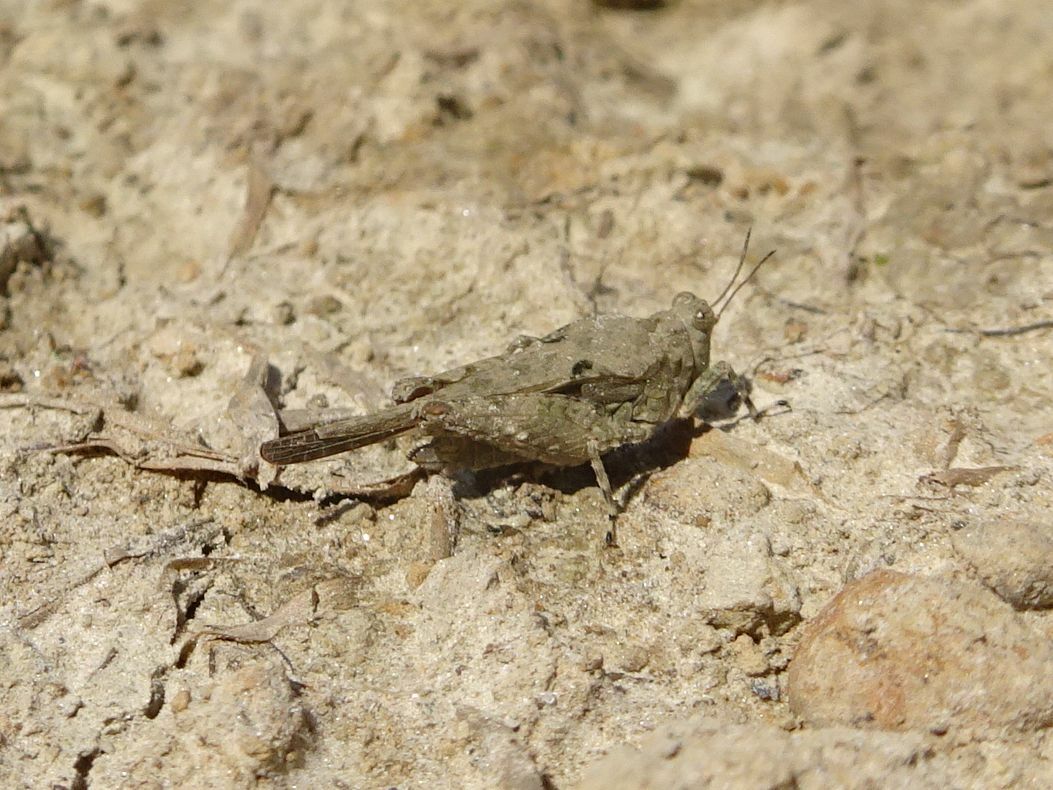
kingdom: Animalia
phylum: Arthropoda
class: Insecta
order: Orthoptera
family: Tetrigidae
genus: Paratettix
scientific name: Paratettix meridionalis
